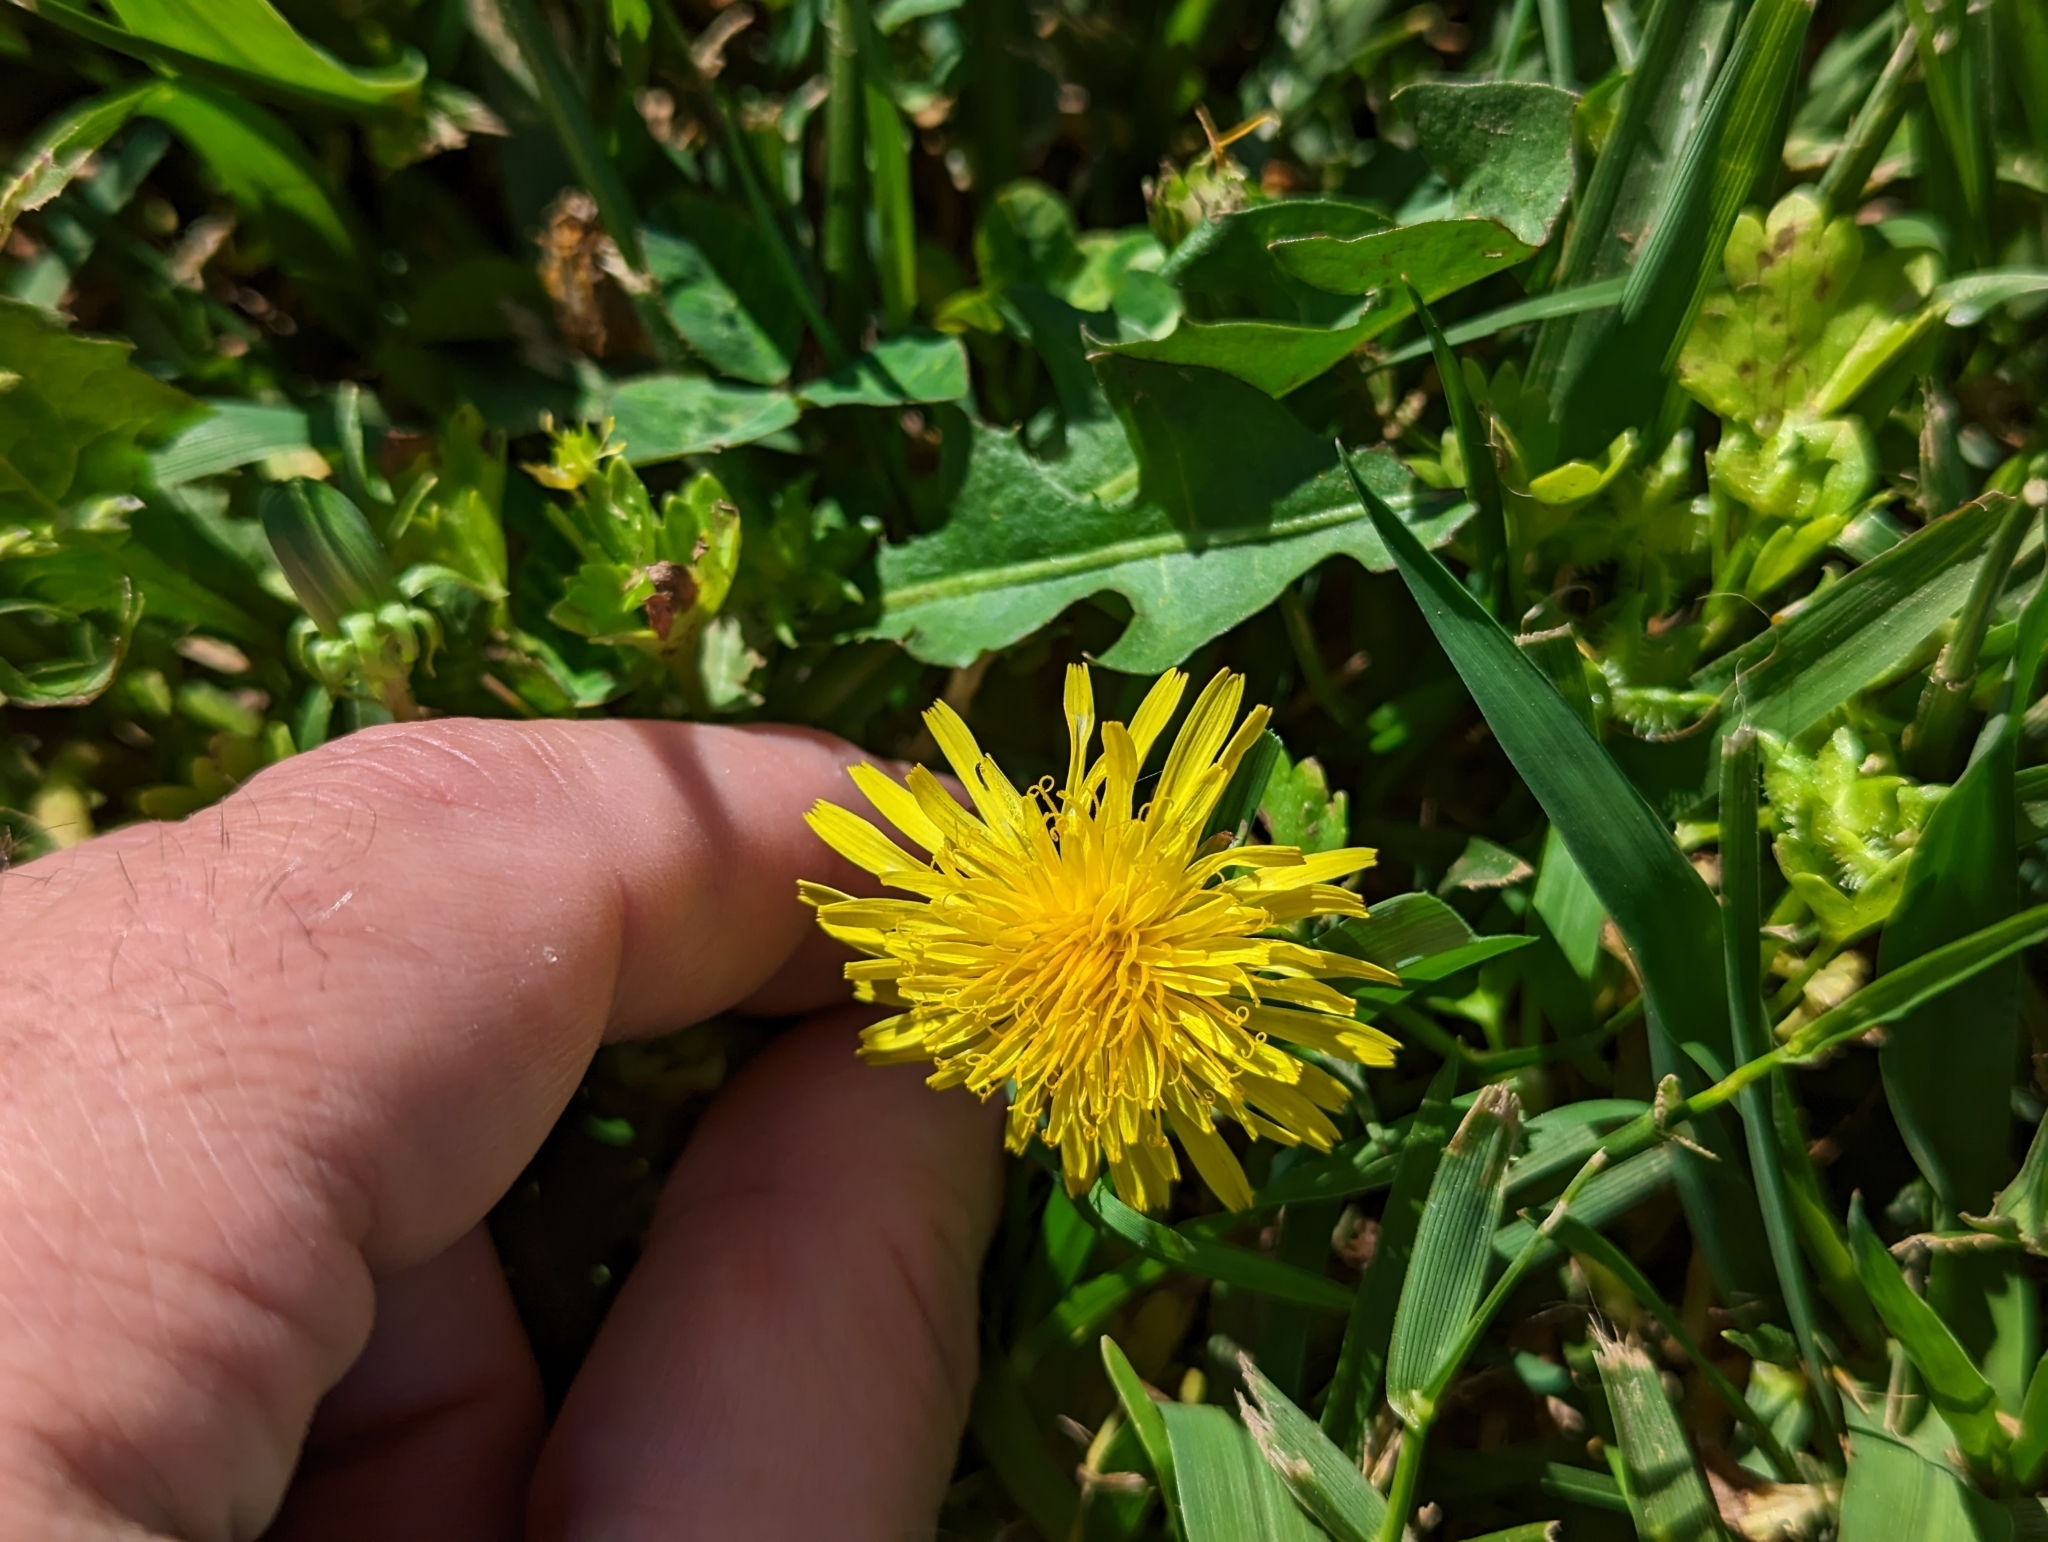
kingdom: Plantae
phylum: Tracheophyta
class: Magnoliopsida
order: Asterales
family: Asteraceae
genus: Taraxacum
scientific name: Taraxacum officinale
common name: Common dandelion
